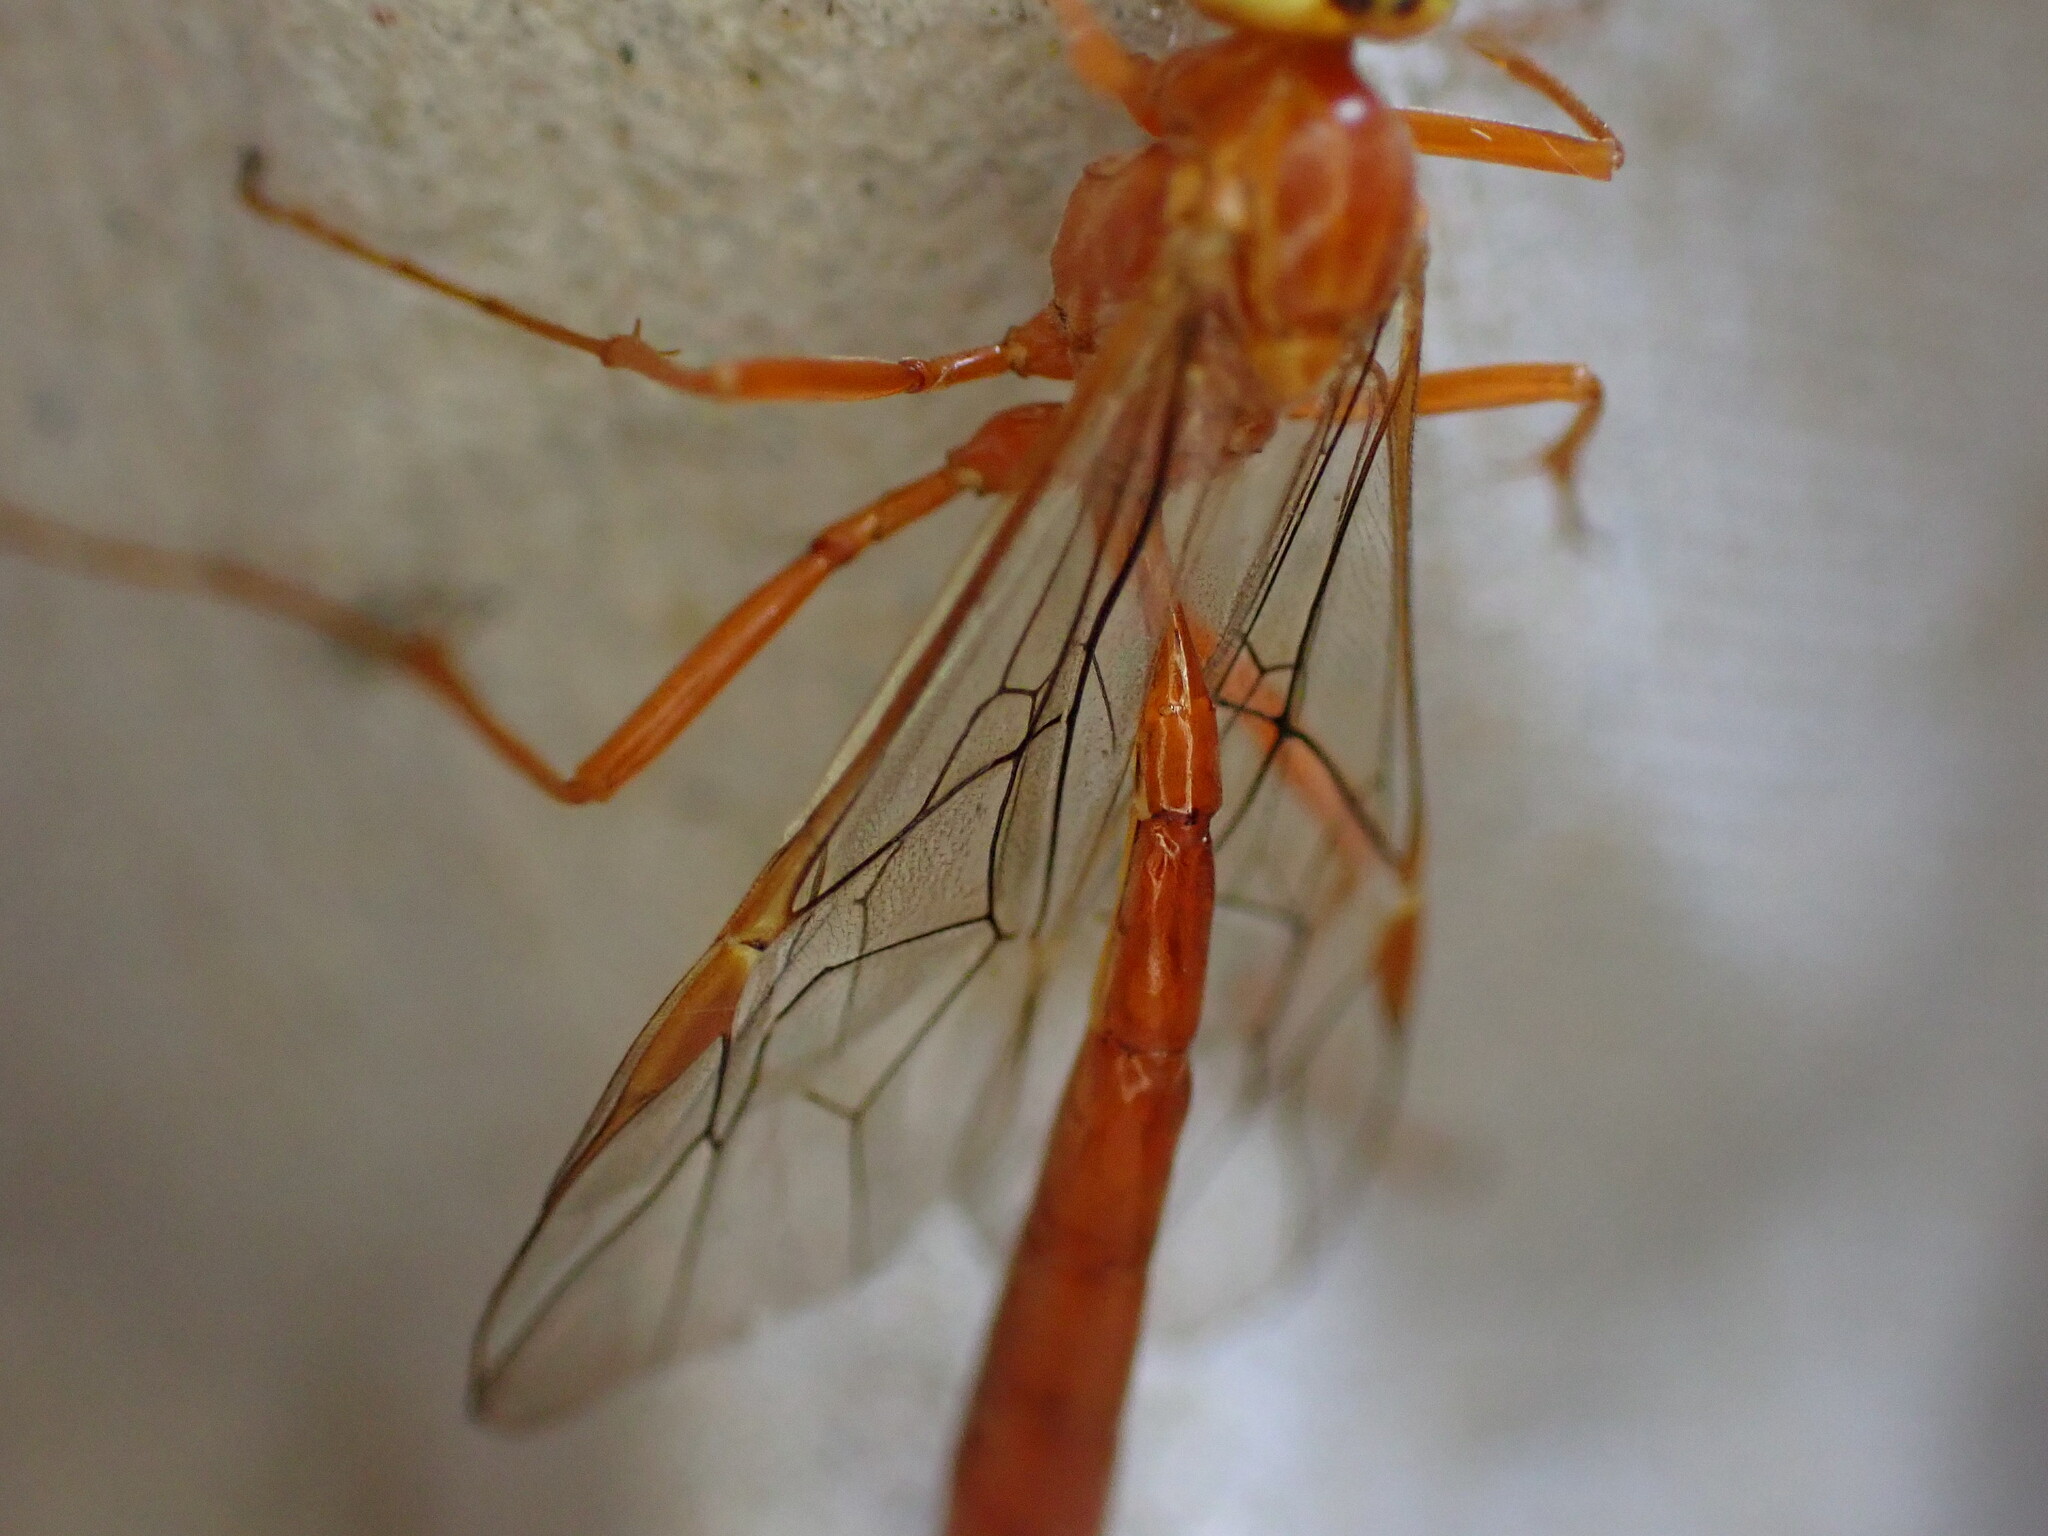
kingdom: Animalia
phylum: Arthropoda
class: Insecta
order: Hymenoptera
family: Ichneumonidae
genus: Ophion
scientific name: Ophion
